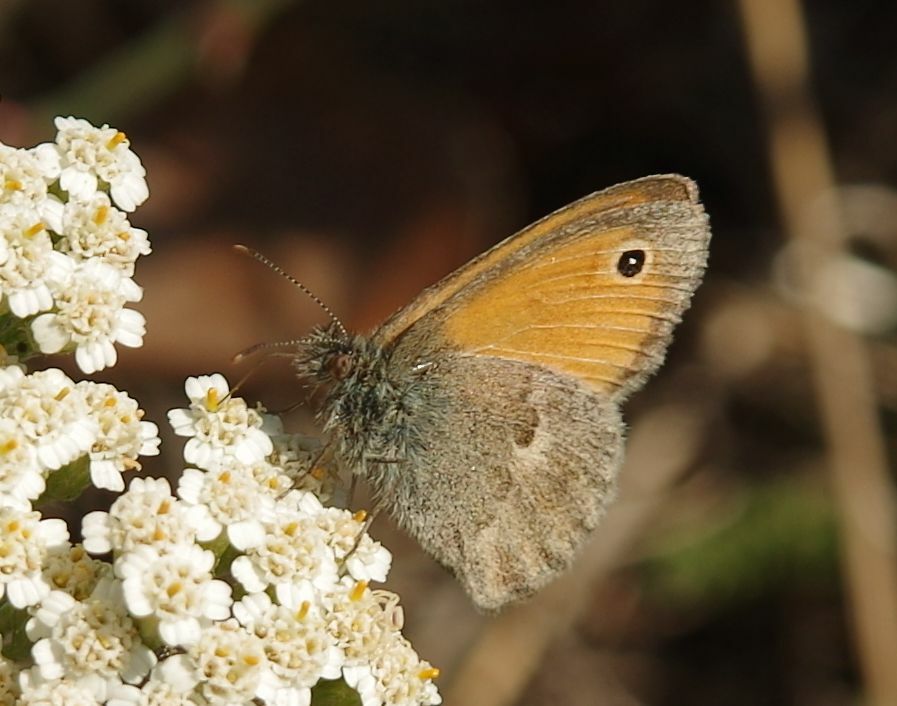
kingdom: Animalia
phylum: Arthropoda
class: Insecta
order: Lepidoptera
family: Nymphalidae
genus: Coenonympha
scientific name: Coenonympha pamphilus
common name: Small heath
